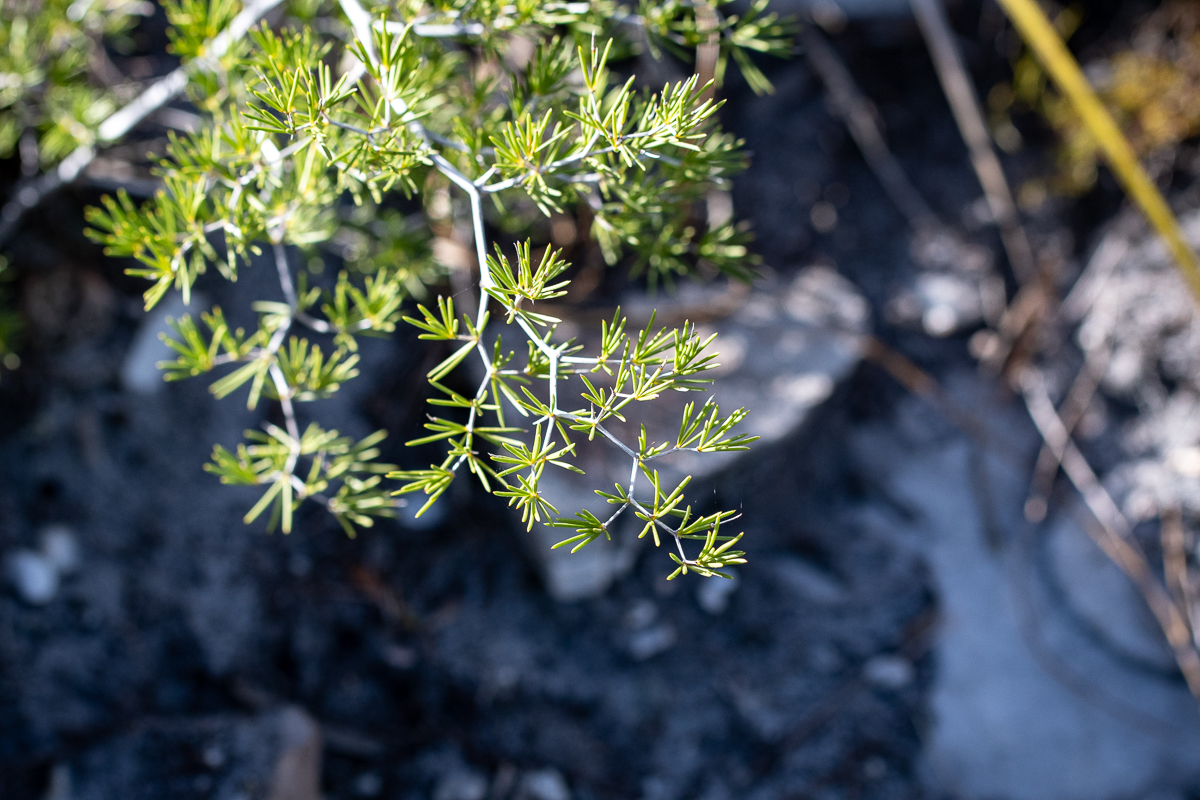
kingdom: Plantae
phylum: Tracheophyta
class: Liliopsida
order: Asparagales
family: Asparagaceae
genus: Asparagus
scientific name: Asparagus lignosus
